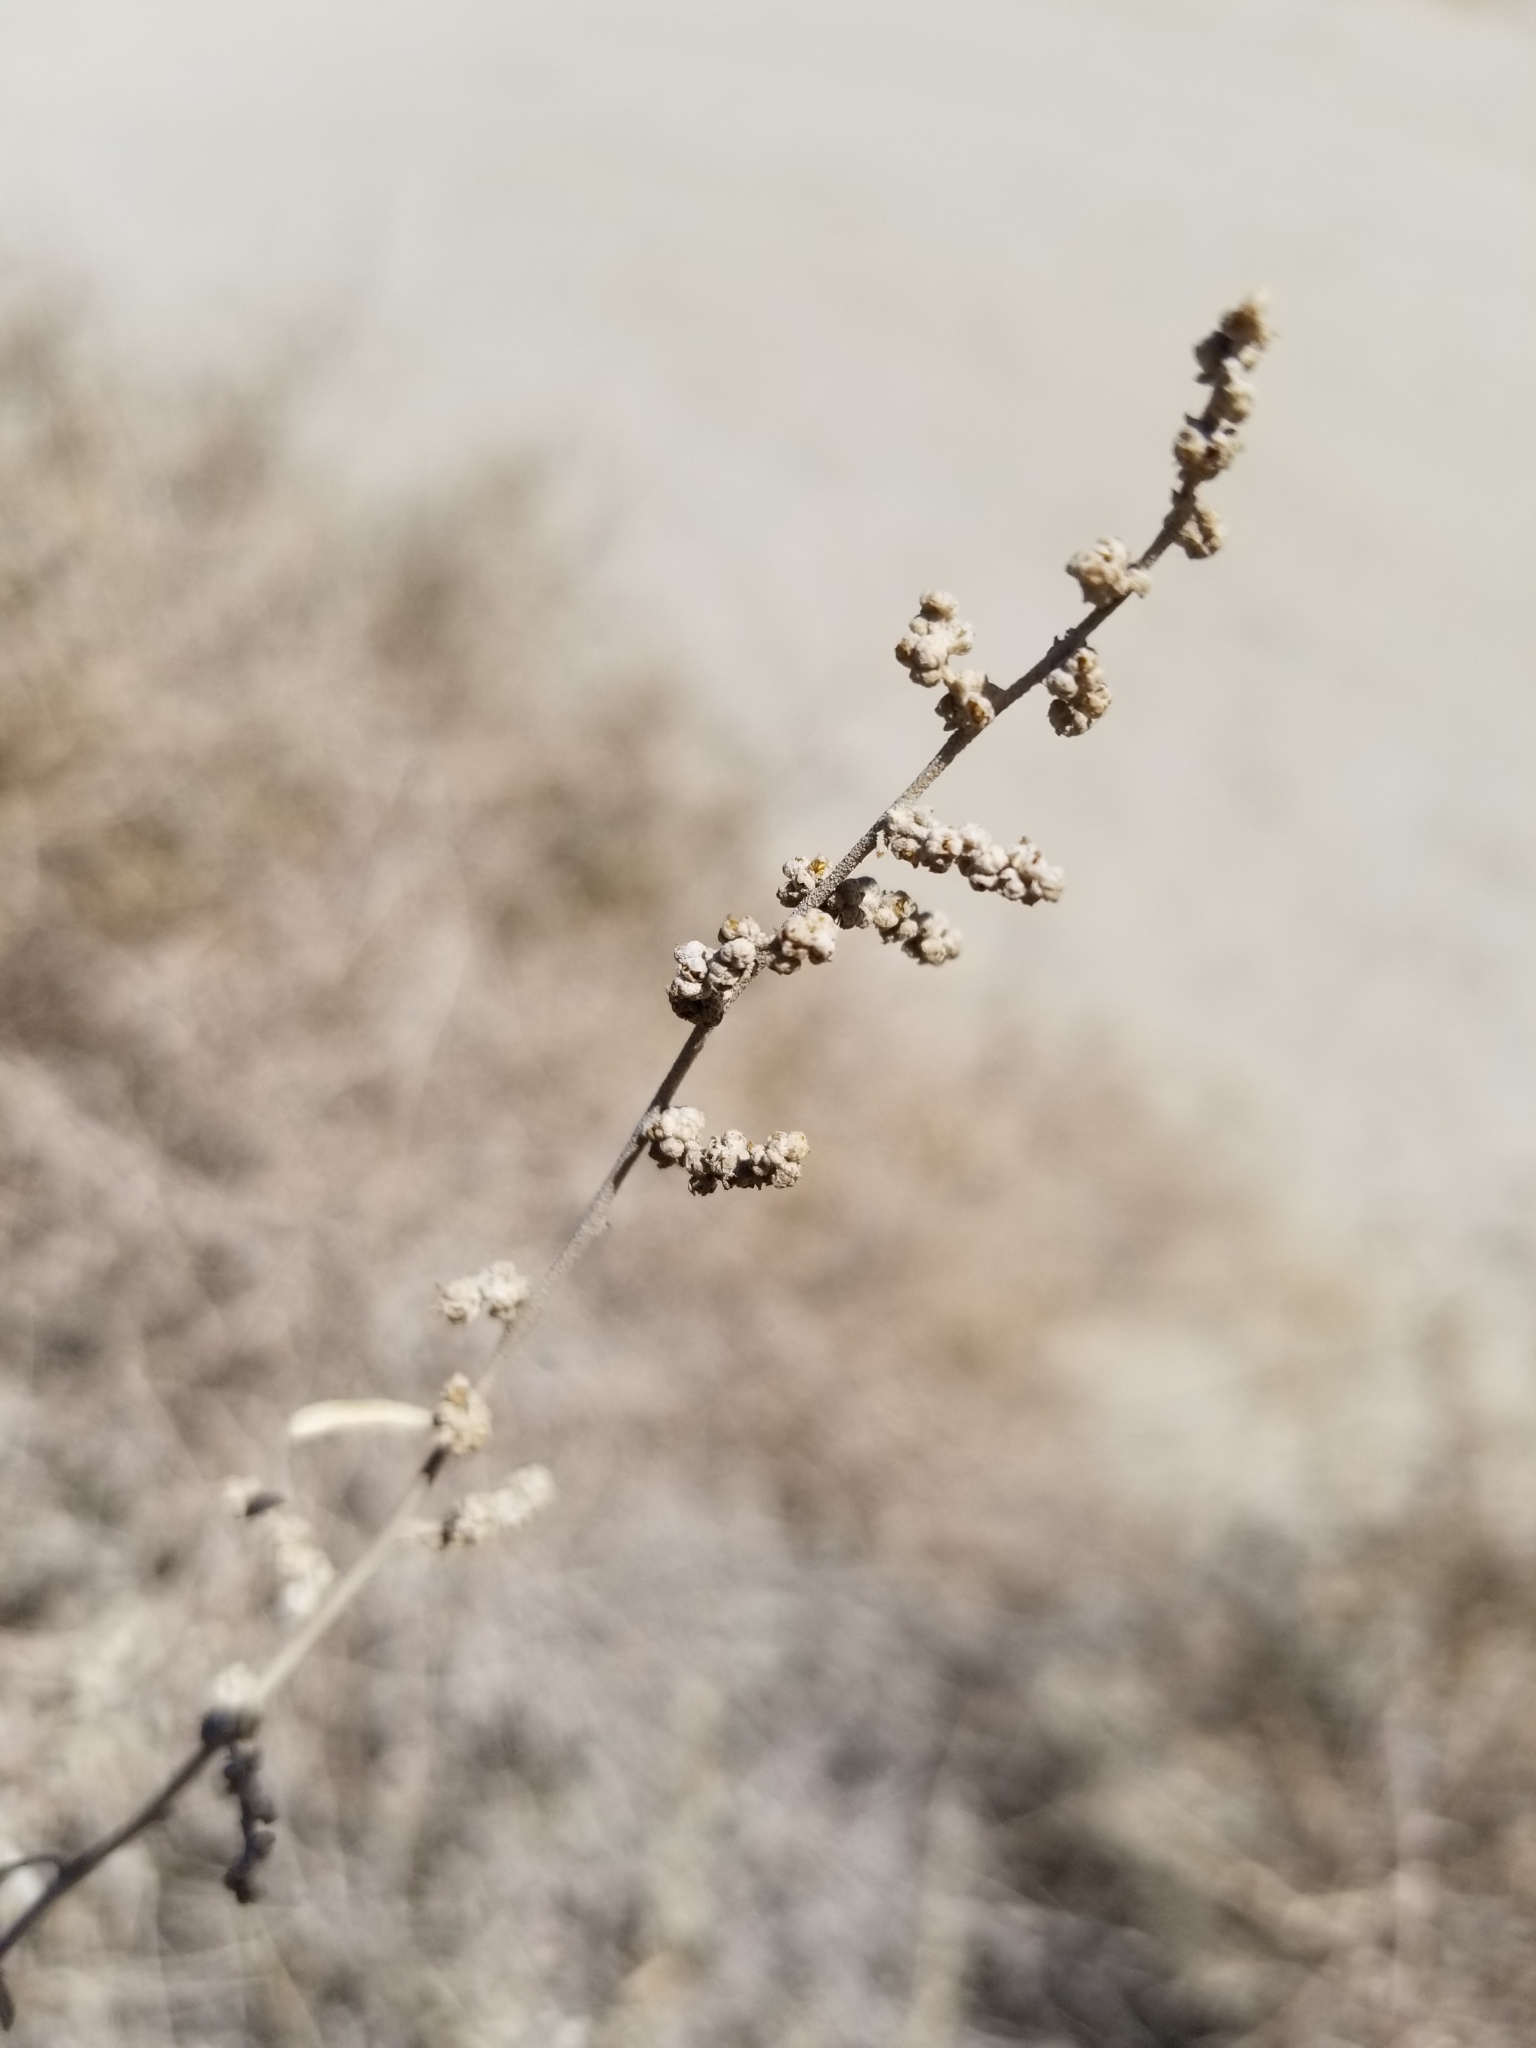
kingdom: Plantae
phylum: Tracheophyta
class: Magnoliopsida
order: Caryophyllales
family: Amaranthaceae
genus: Atriplex
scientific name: Atriplex canescens
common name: Four-wing saltbush
